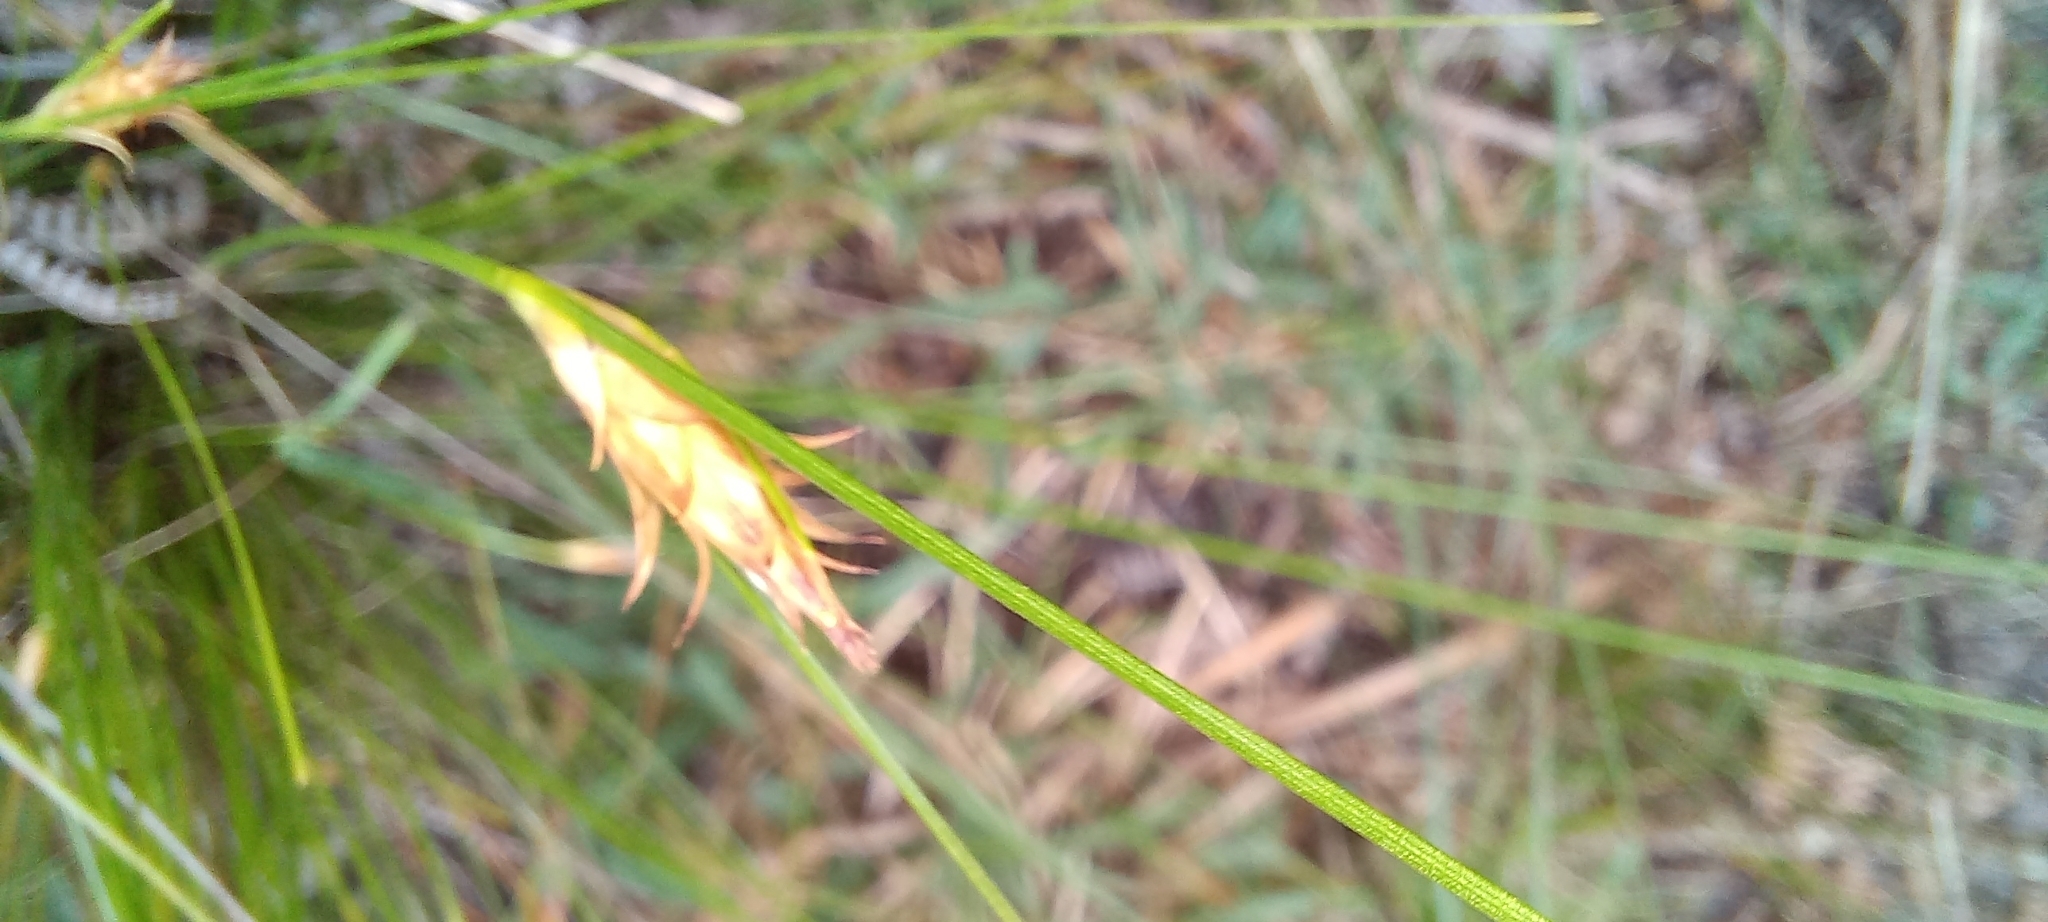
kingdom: Plantae
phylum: Tracheophyta
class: Liliopsida
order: Poales
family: Cyperaceae
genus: Ficinia
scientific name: Ficinia nigrescens
